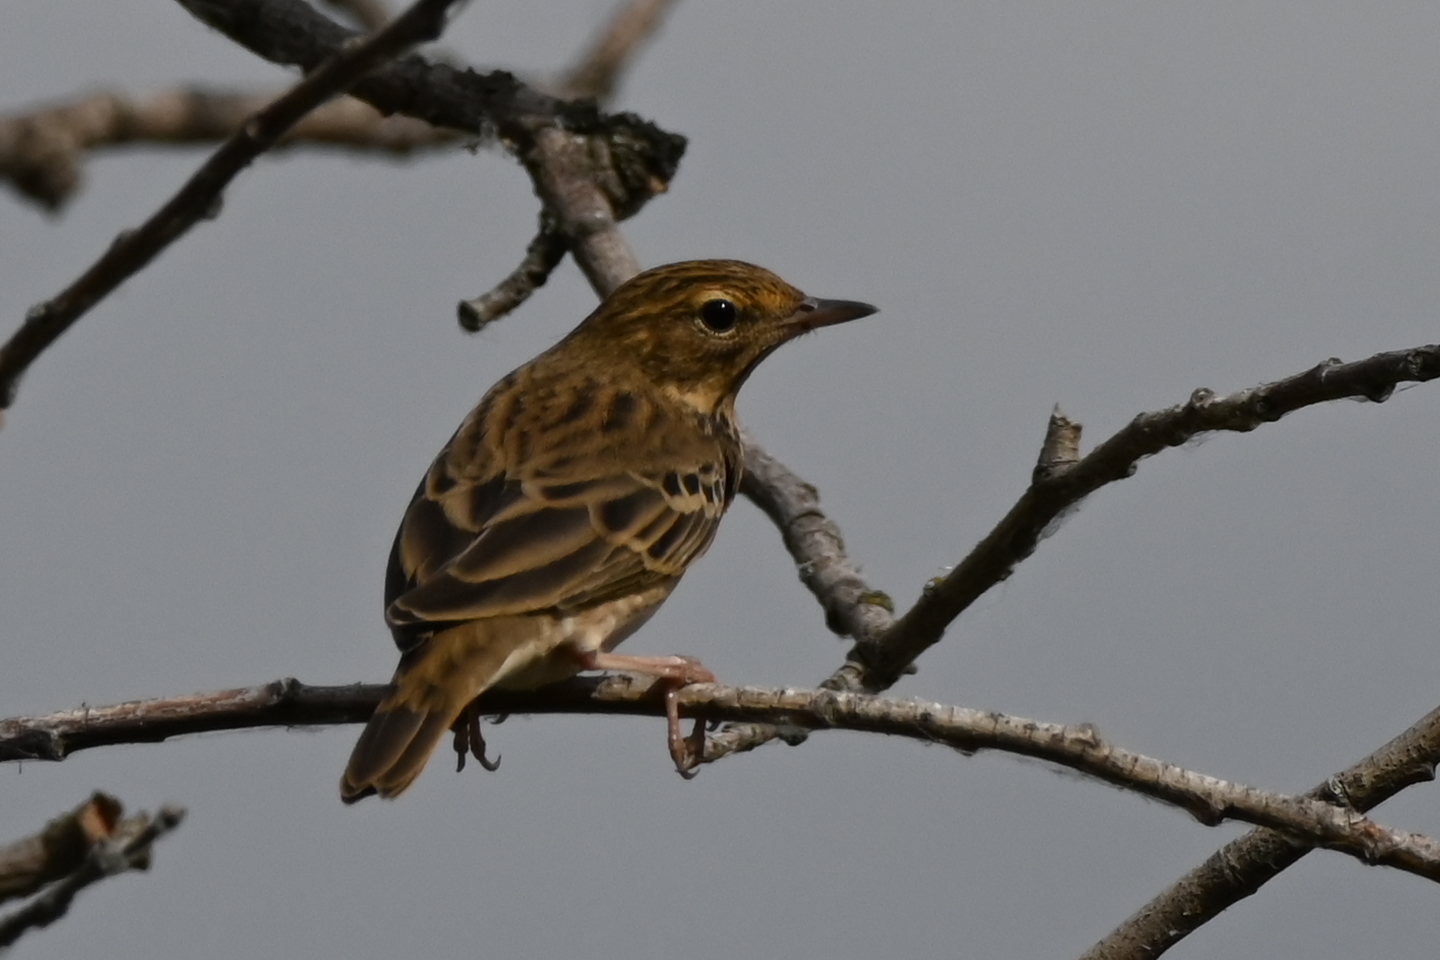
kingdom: Animalia
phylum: Chordata
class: Aves
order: Passeriformes
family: Motacillidae
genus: Anthus
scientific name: Anthus trivialis
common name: Tree pipit
